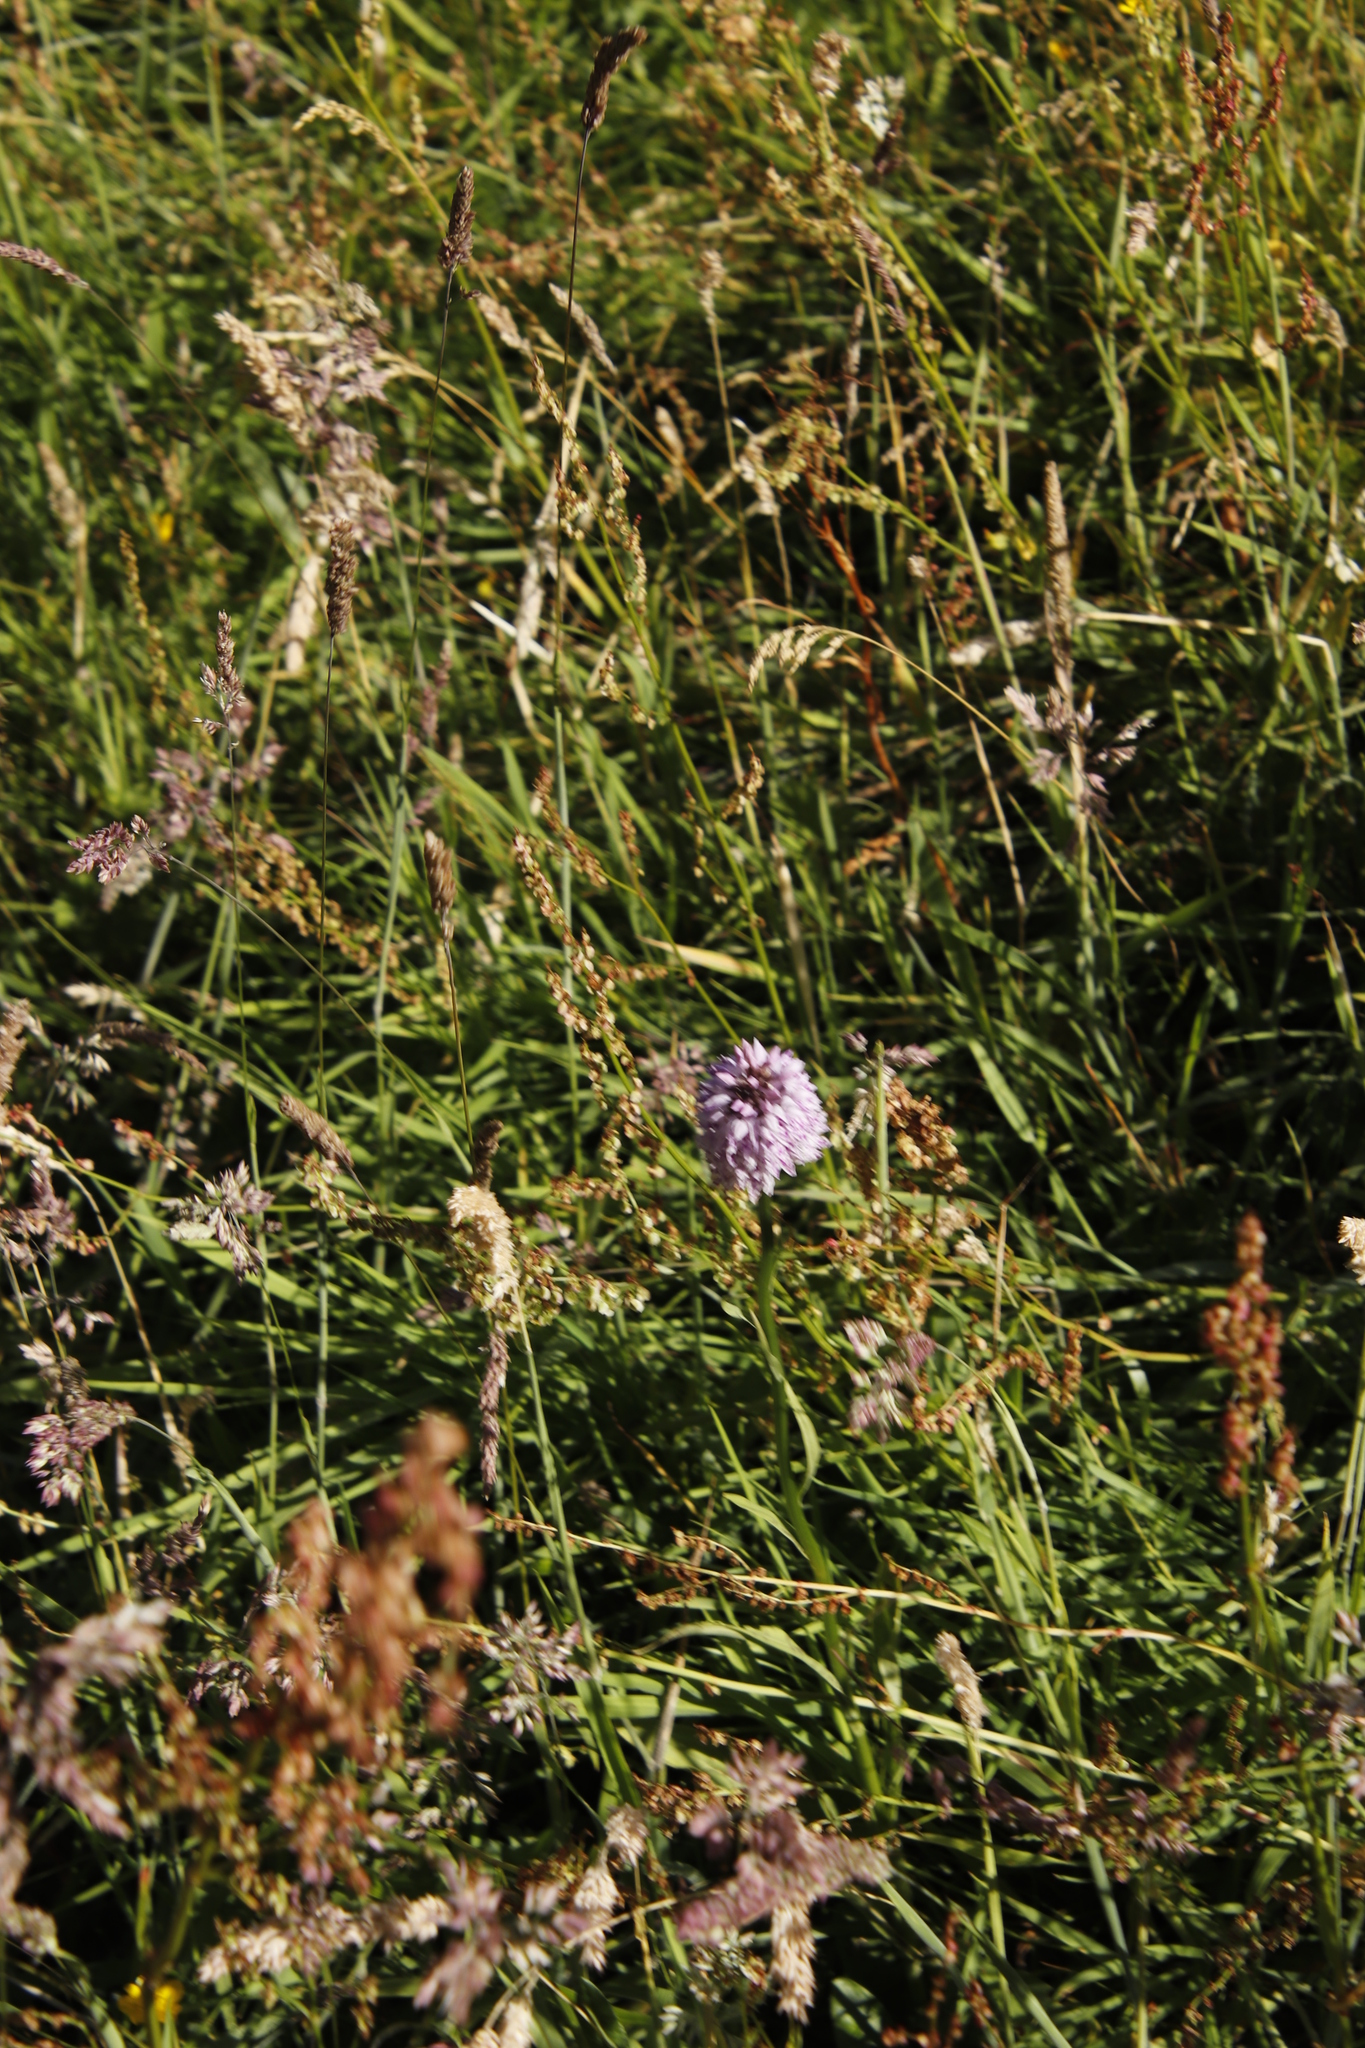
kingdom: Plantae
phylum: Tracheophyta
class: Liliopsida
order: Asparagales
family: Orchidaceae
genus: Dactylorhiza
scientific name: Dactylorhiza maculata
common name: Heath spotted-orchid
